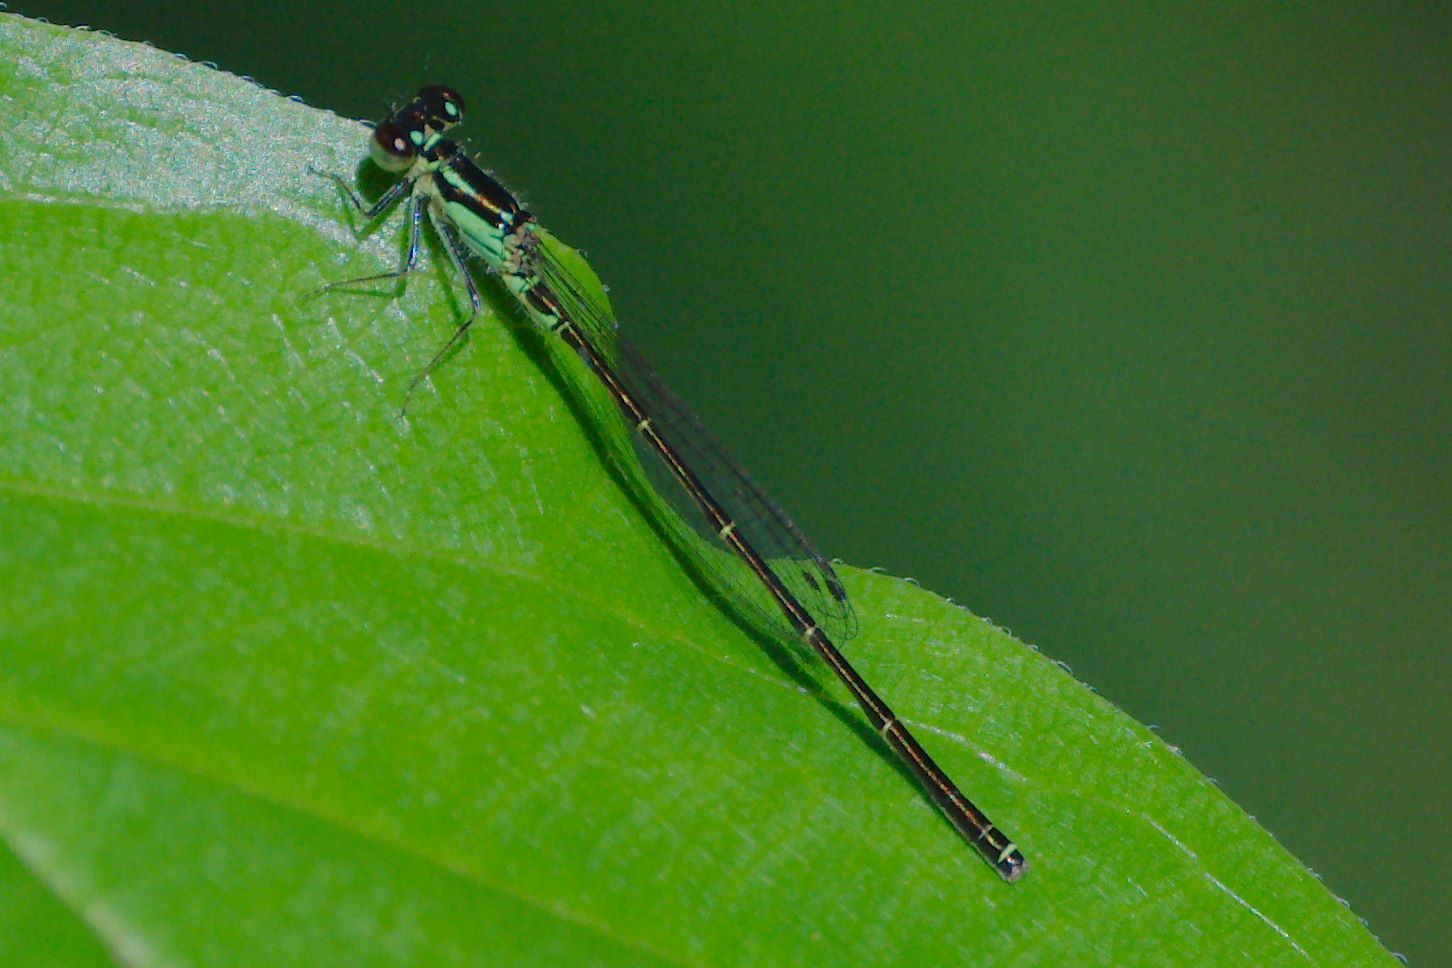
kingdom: Animalia
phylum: Arthropoda
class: Insecta
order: Odonata
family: Coenagrionidae
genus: Ischnura
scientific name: Ischnura posita
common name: Fragile forktail
